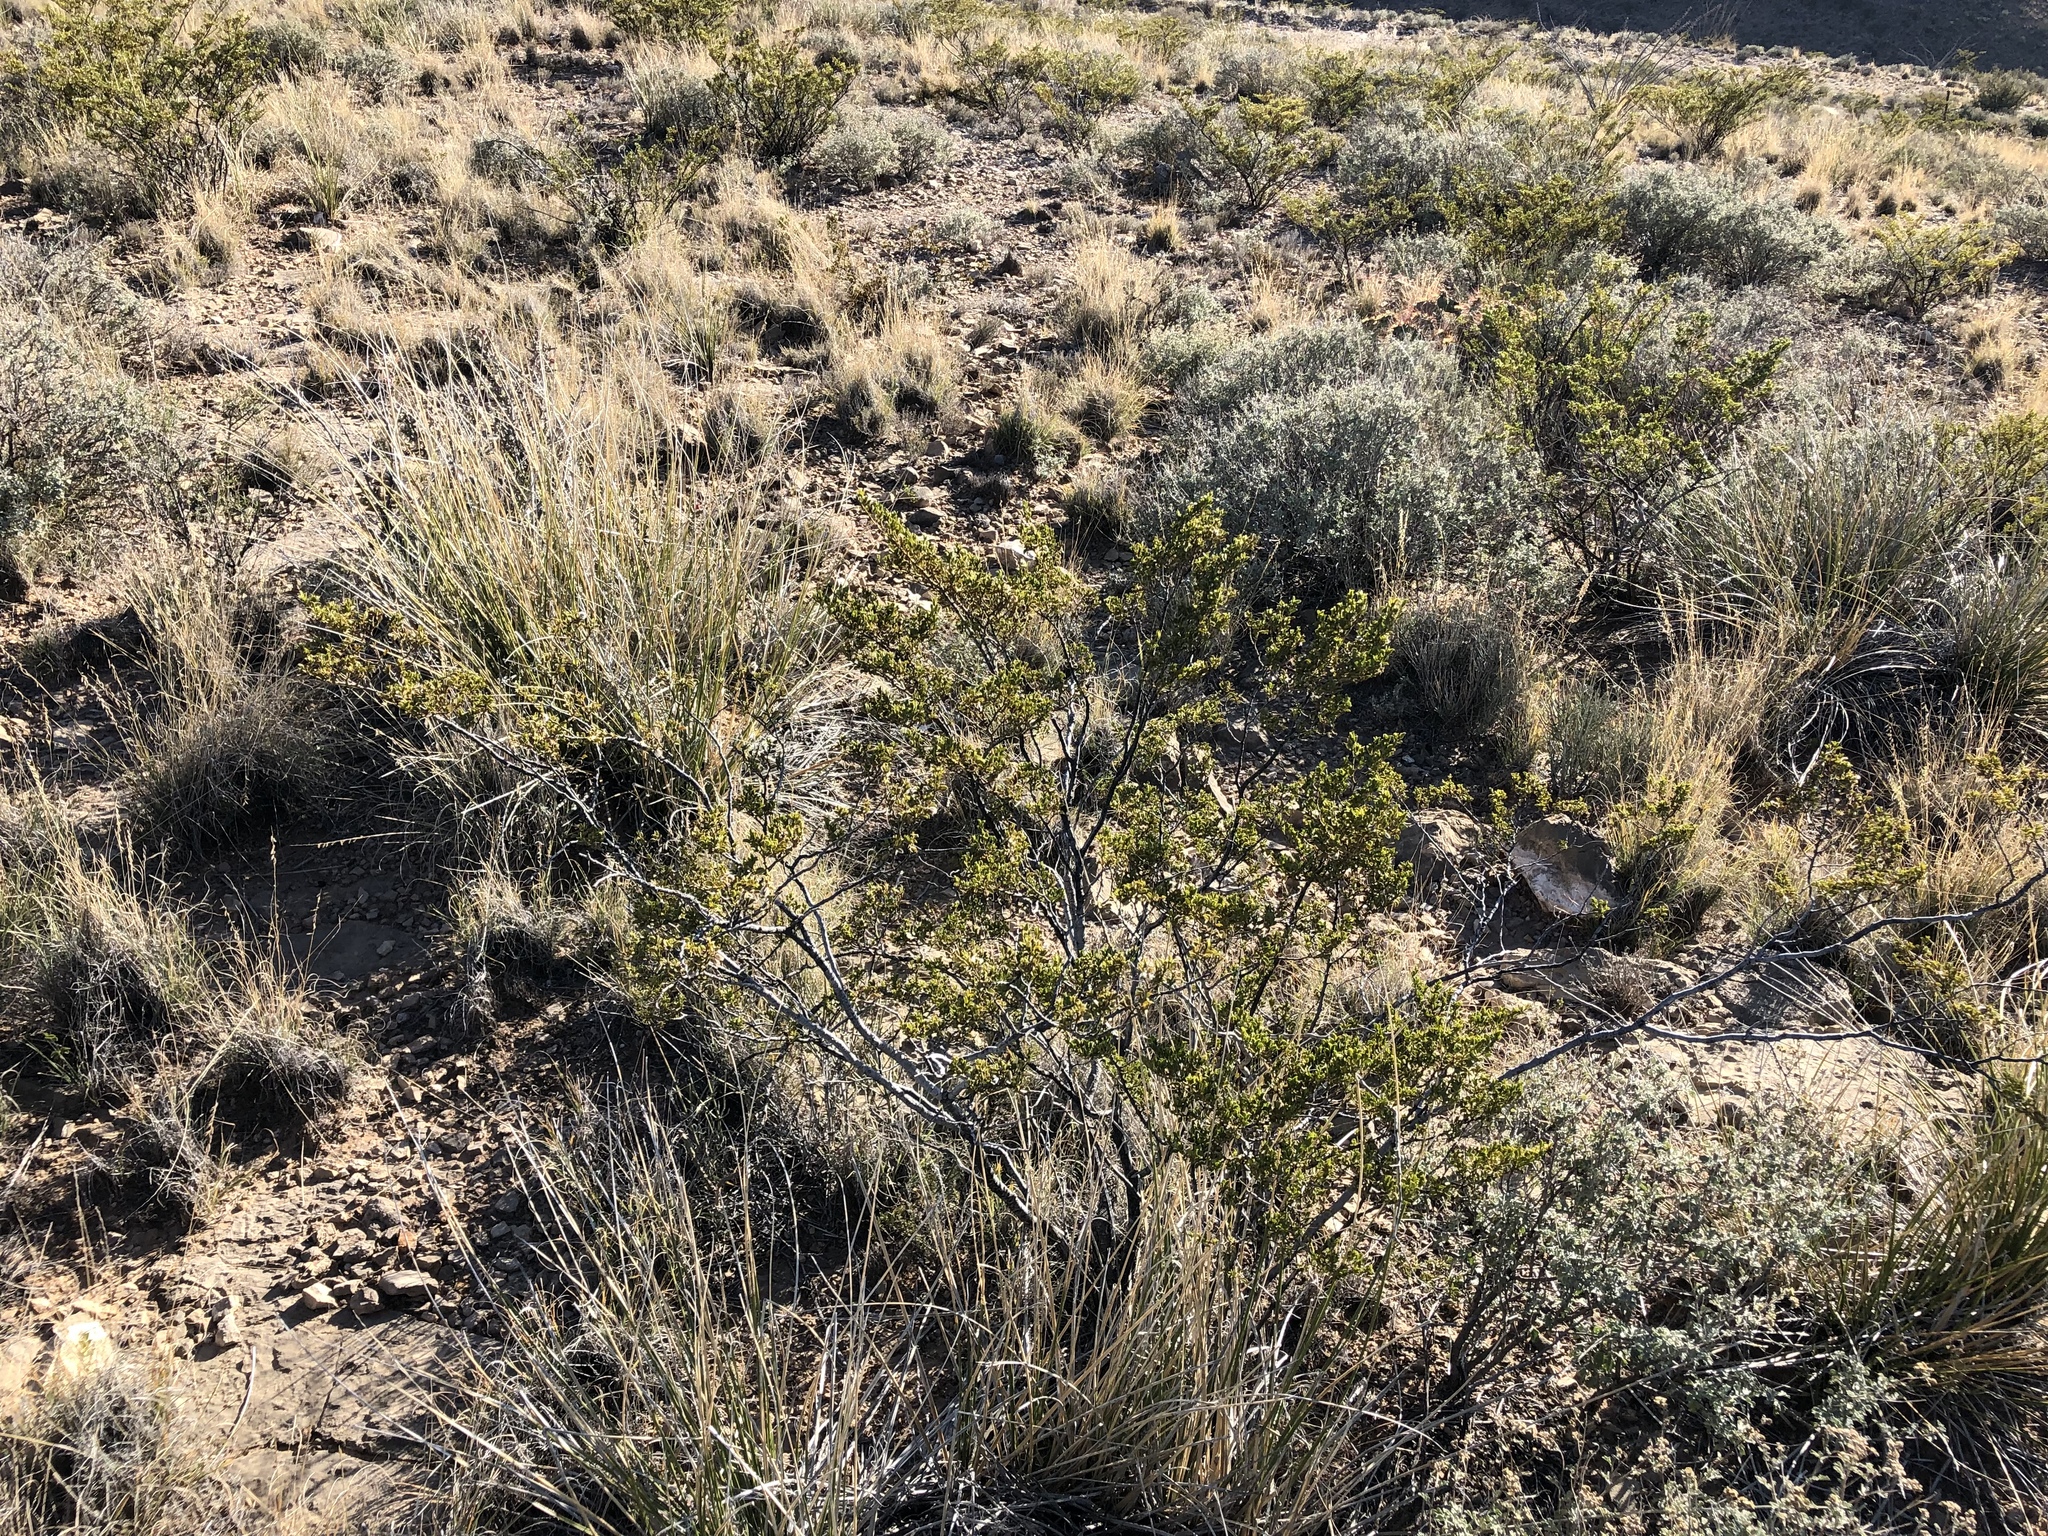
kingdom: Plantae
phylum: Tracheophyta
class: Magnoliopsida
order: Zygophyllales
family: Zygophyllaceae
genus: Larrea
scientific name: Larrea tridentata
